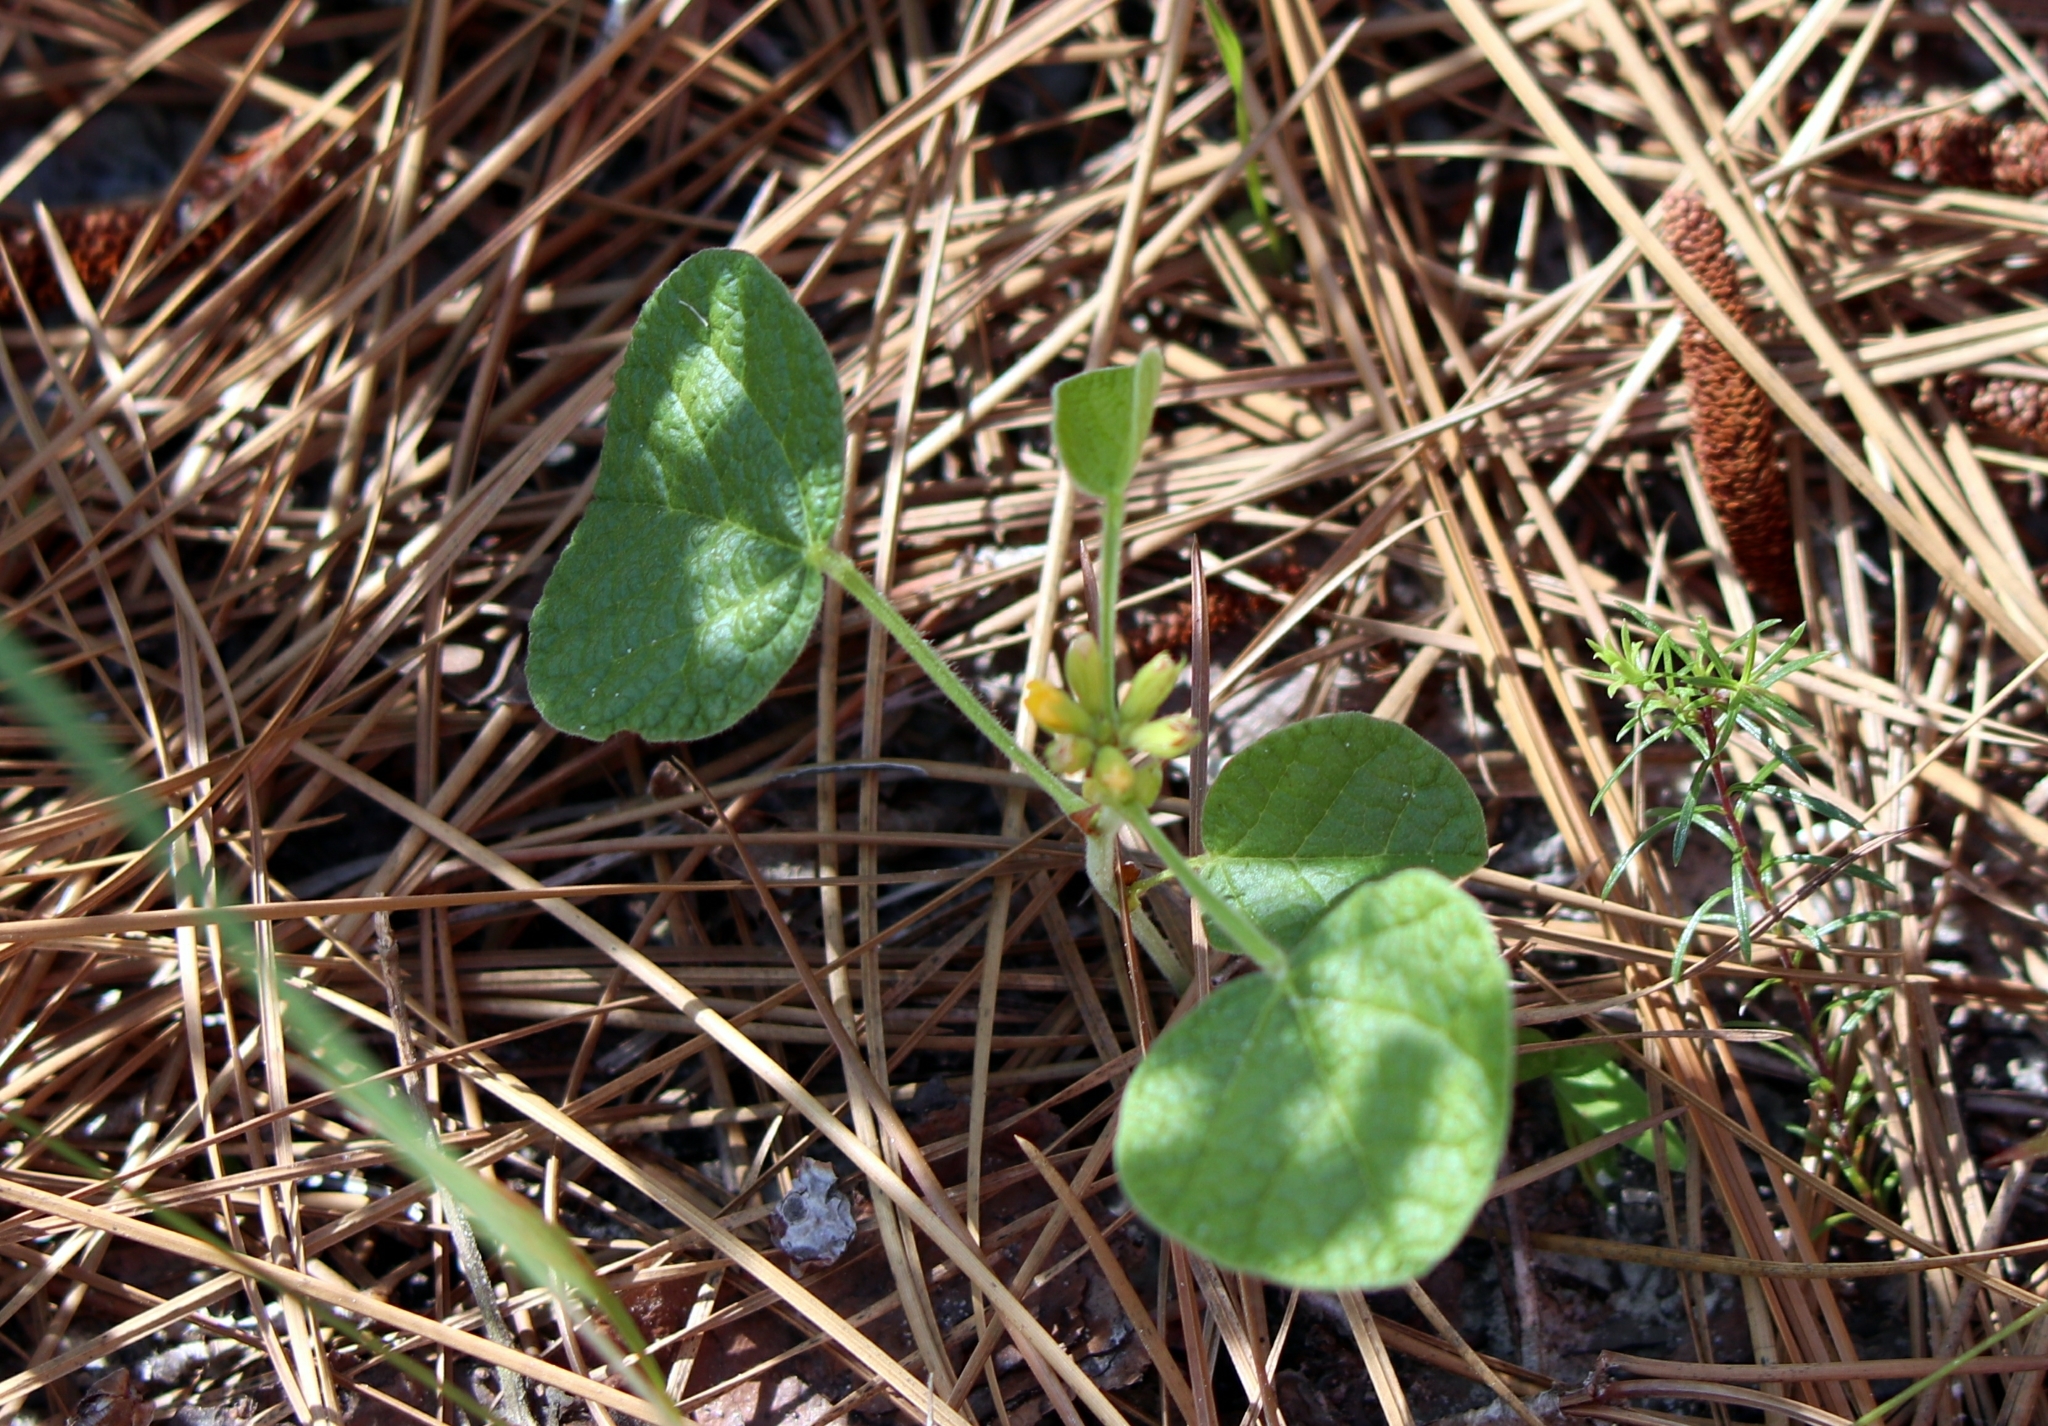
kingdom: Plantae
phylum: Tracheophyta
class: Magnoliopsida
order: Fabales
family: Fabaceae
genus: Rhynchosia
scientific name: Rhynchosia reniformis
